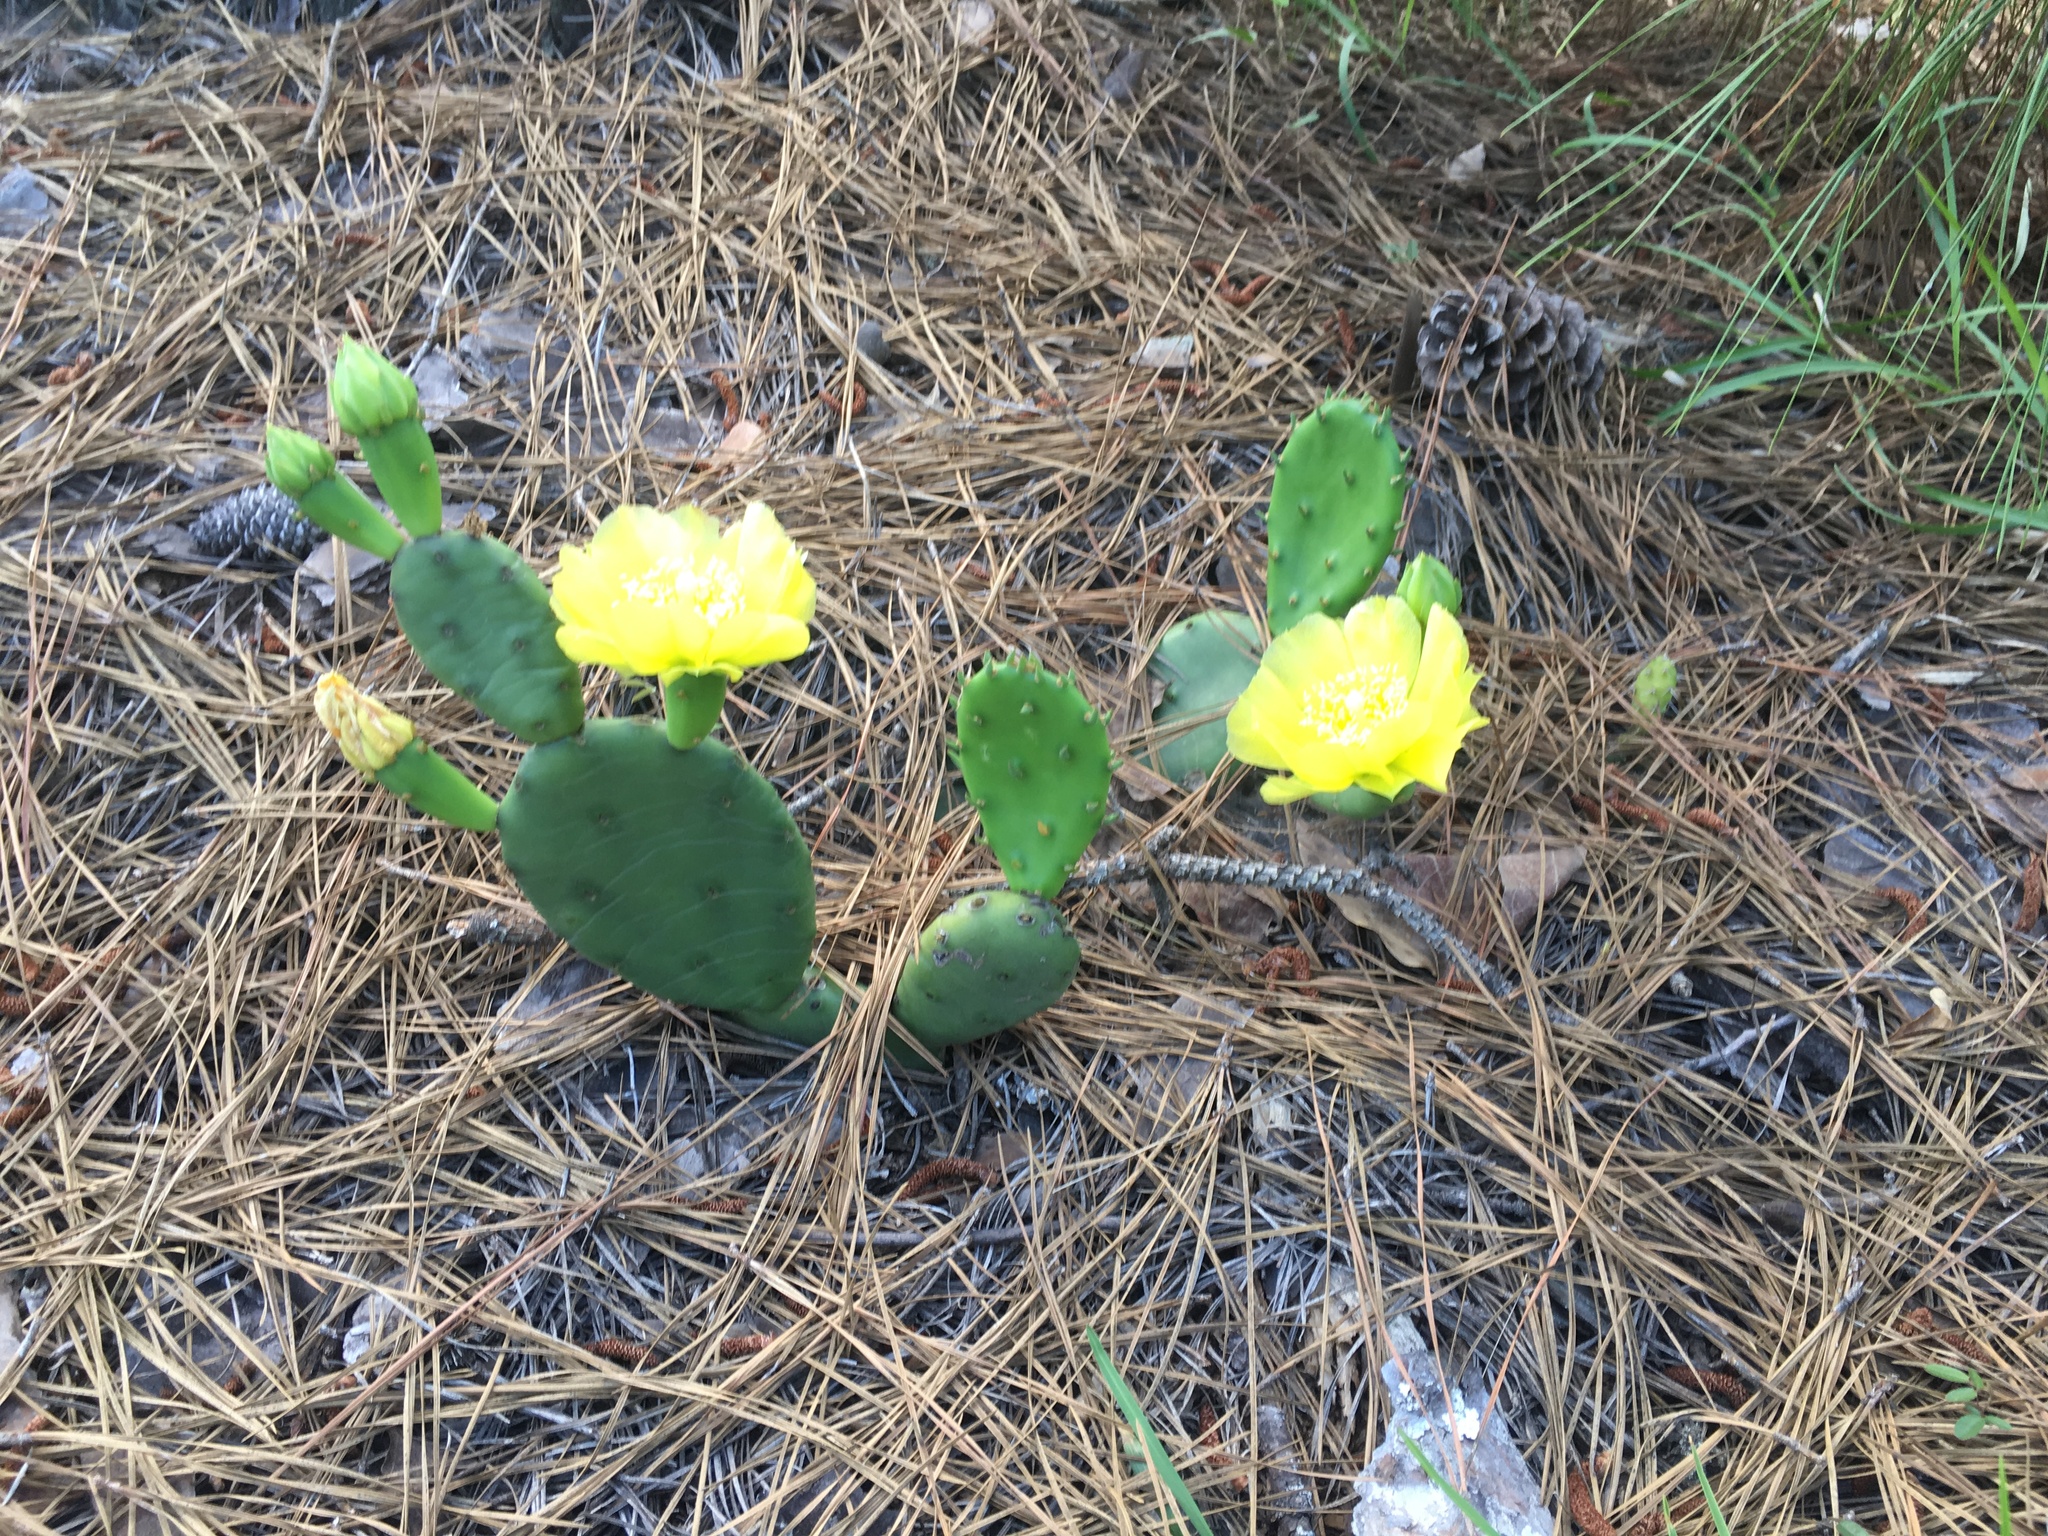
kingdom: Plantae
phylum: Tracheophyta
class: Magnoliopsida
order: Caryophyllales
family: Cactaceae
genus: Opuntia
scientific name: Opuntia humifusa
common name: Eastern prickly-pear
